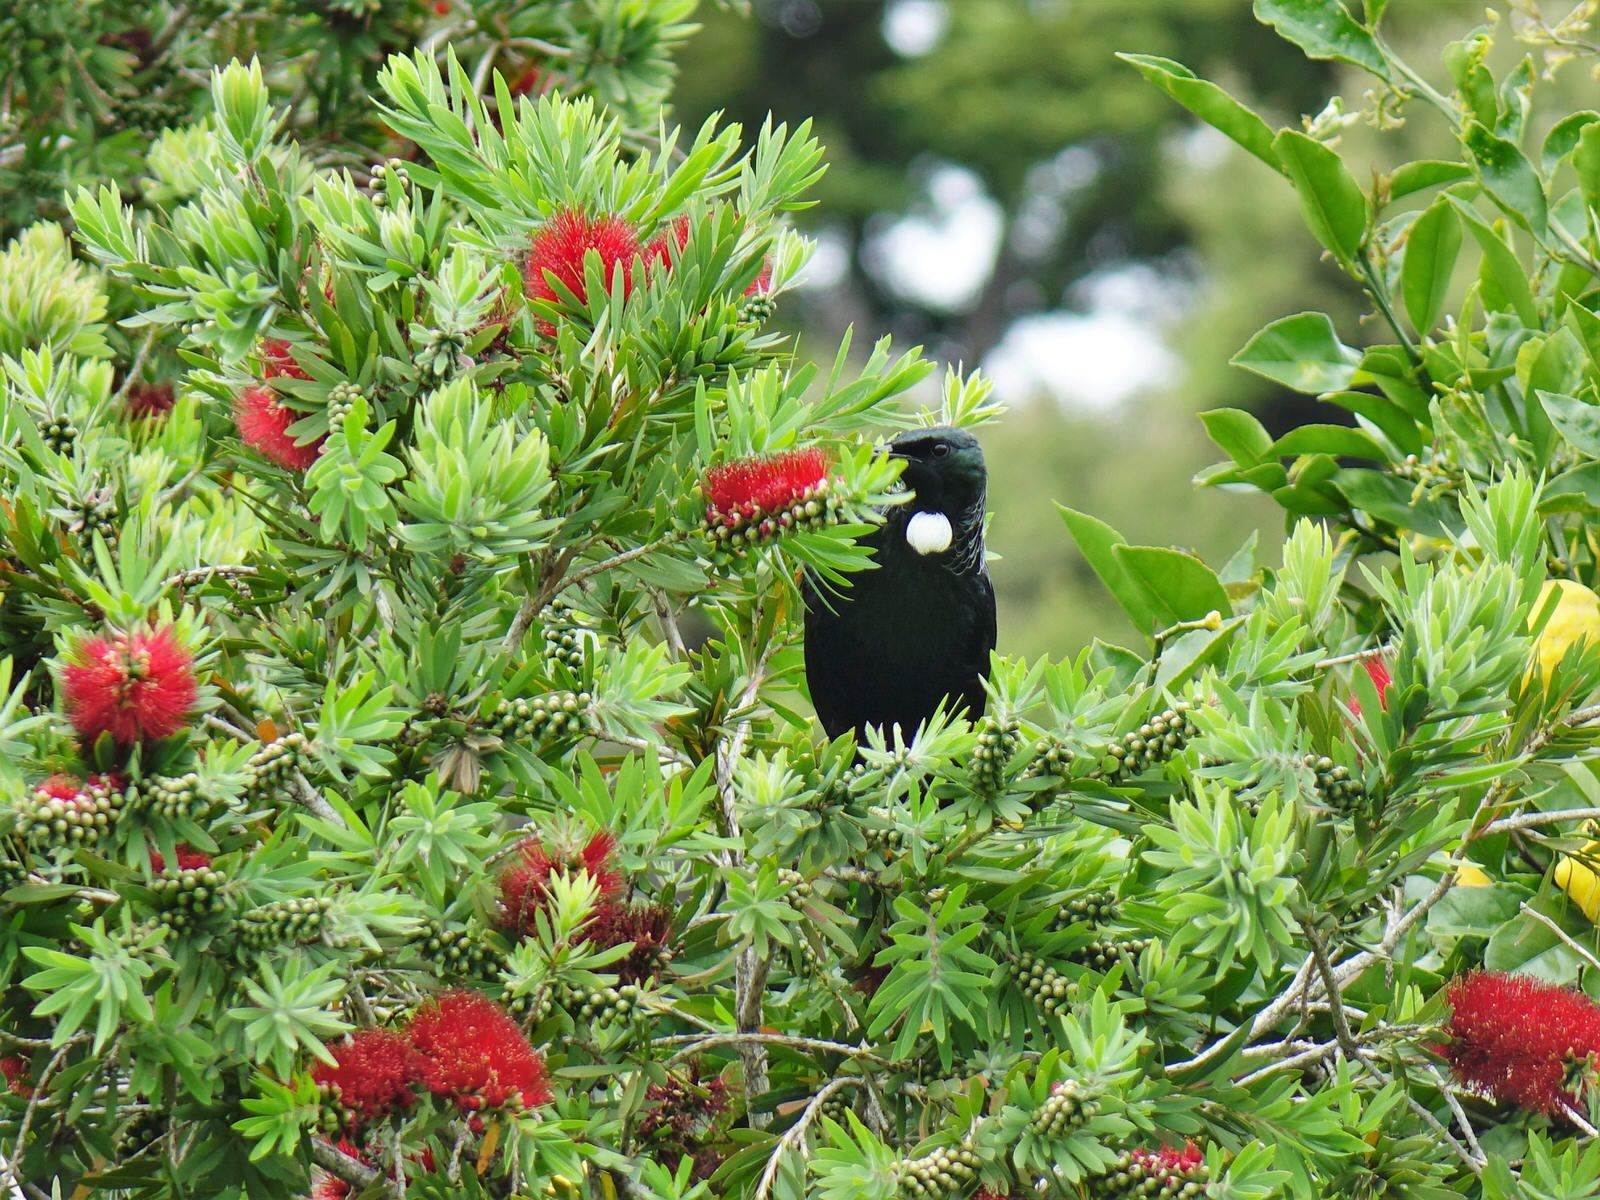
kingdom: Animalia
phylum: Chordata
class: Aves
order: Passeriformes
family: Meliphagidae
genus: Prosthemadera
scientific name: Prosthemadera novaeseelandiae
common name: Tui
